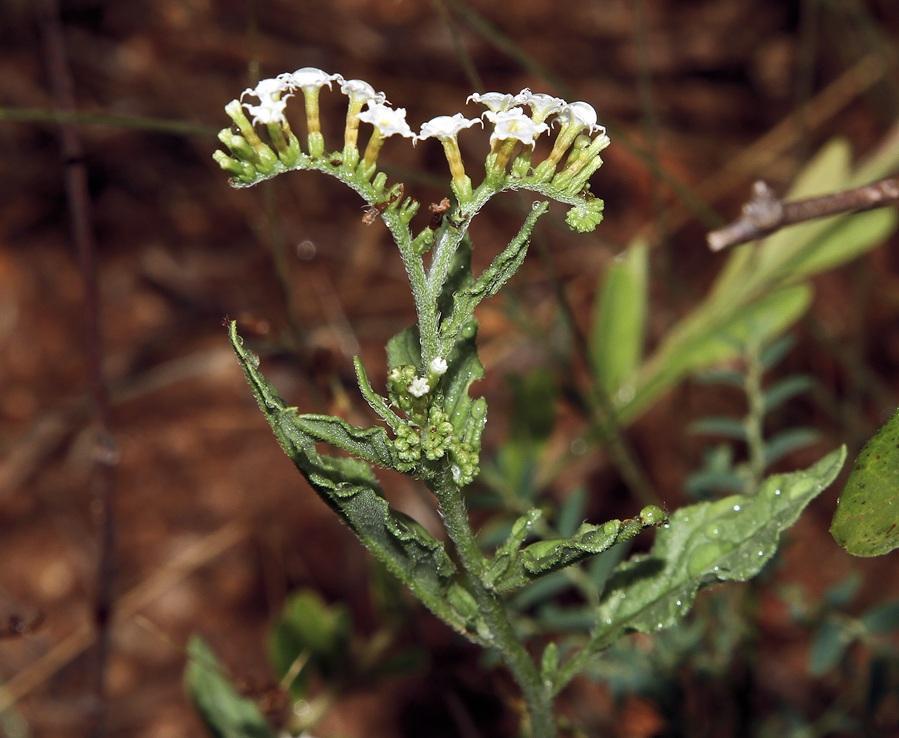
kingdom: Plantae
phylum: Tracheophyta
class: Magnoliopsida
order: Boraginales
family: Heliotropiaceae
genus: Heliotropium
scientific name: Heliotropium ciliatum
